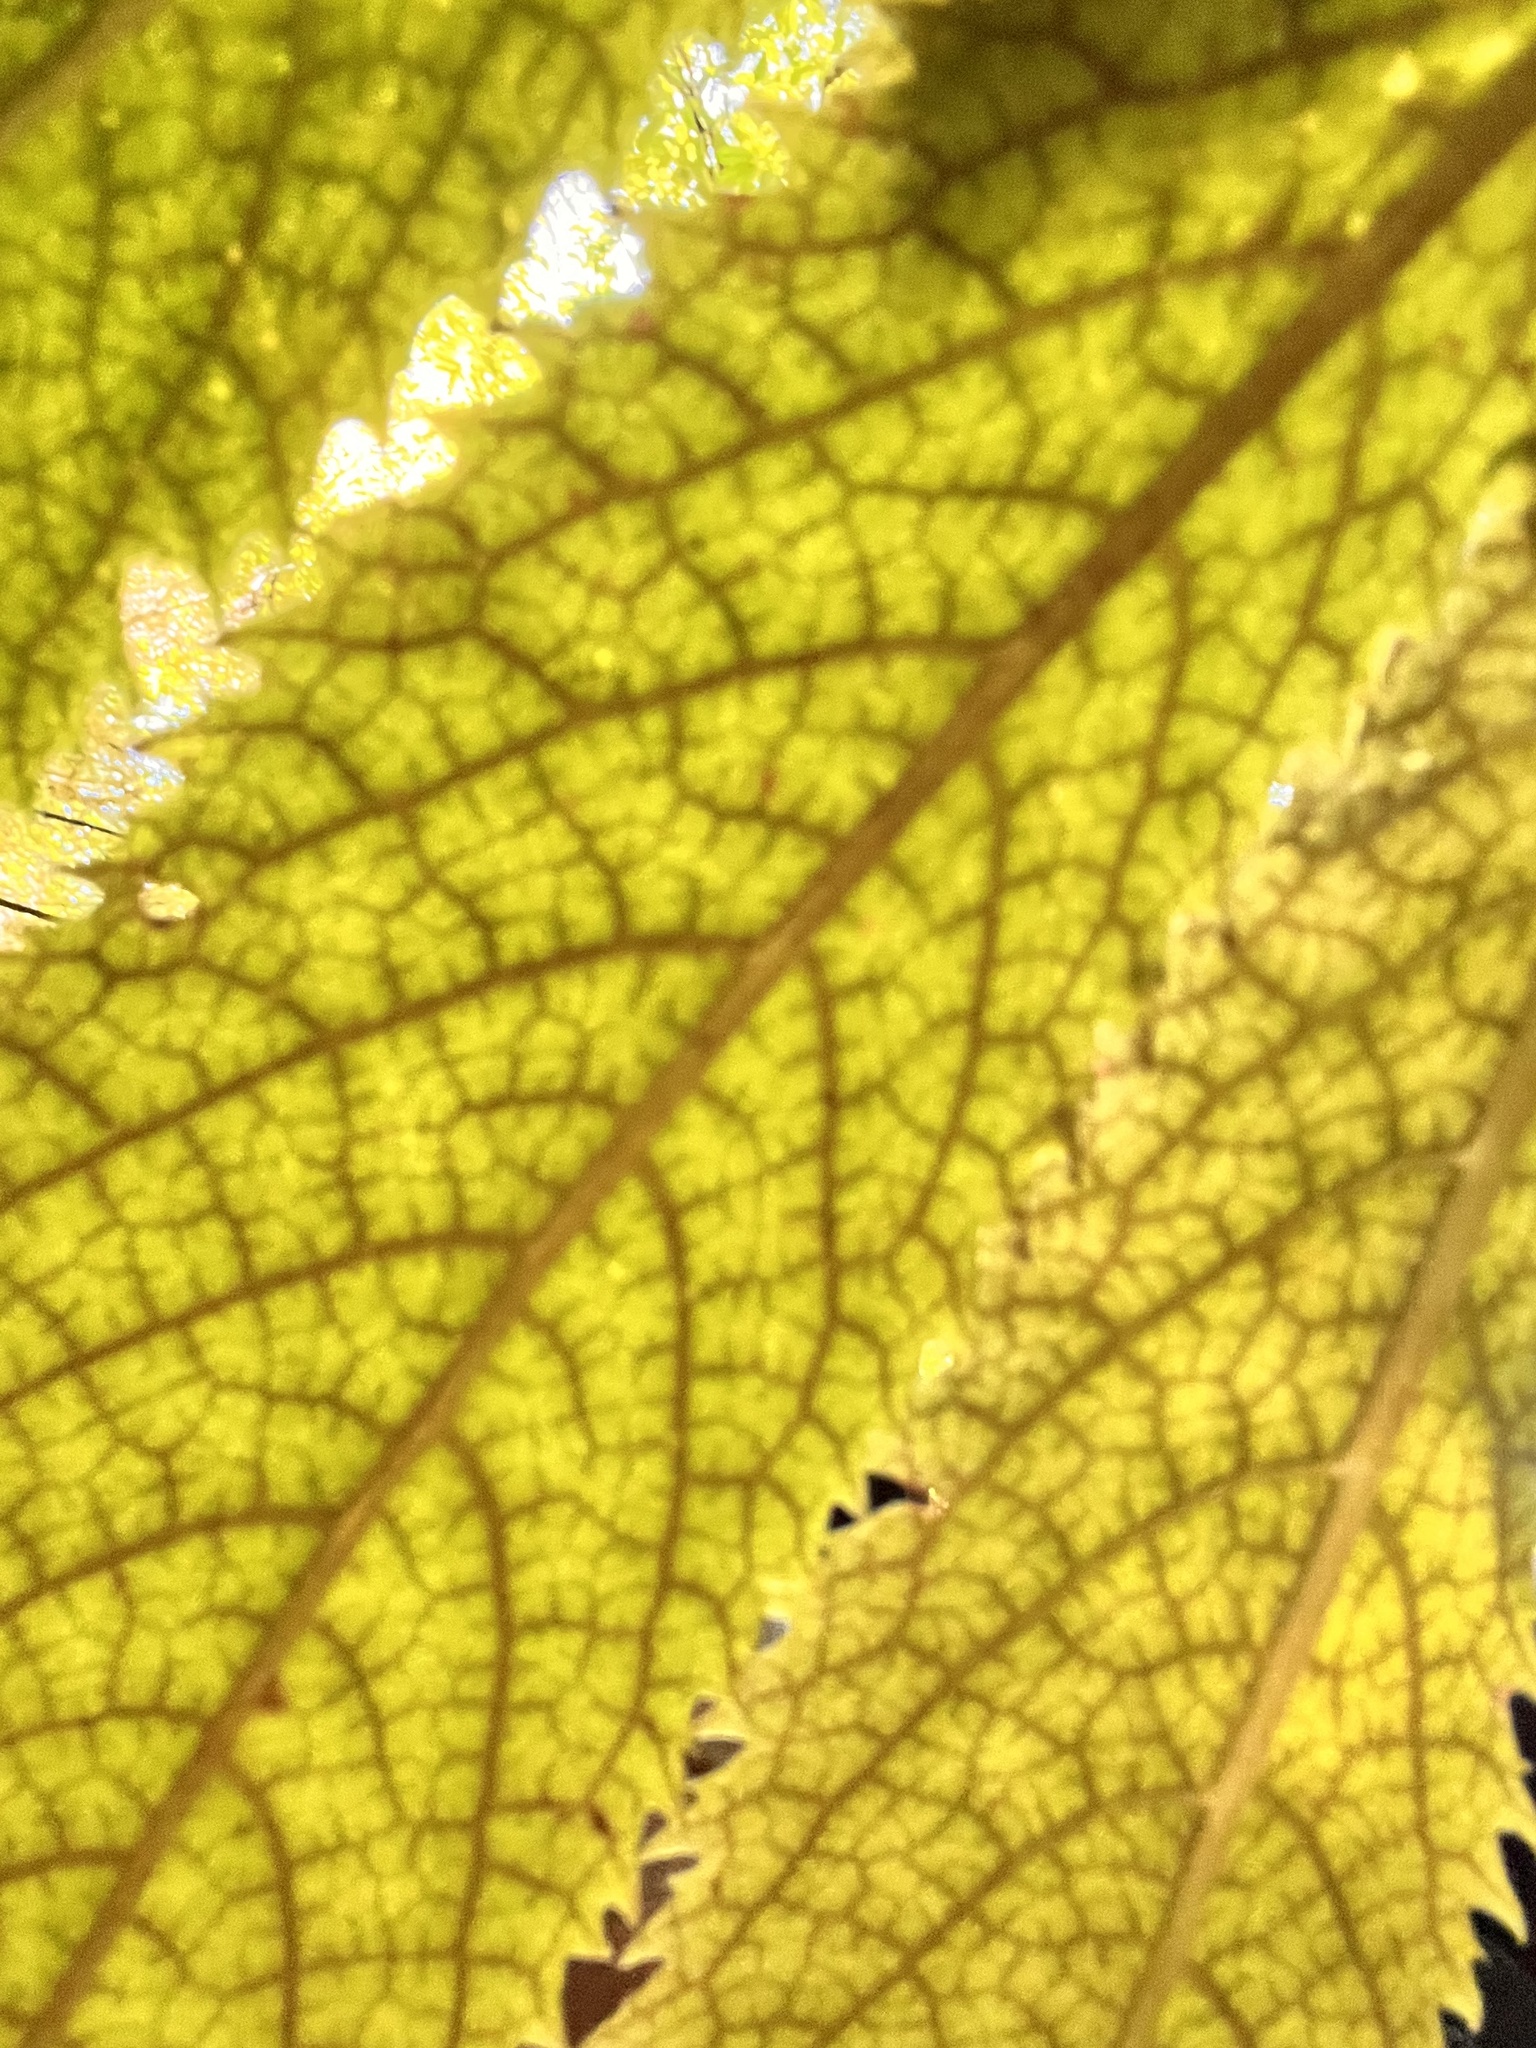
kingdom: Plantae
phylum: Tracheophyta
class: Magnoliopsida
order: Rosales
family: Urticaceae
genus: Elatostema
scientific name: Elatostema rugosum
